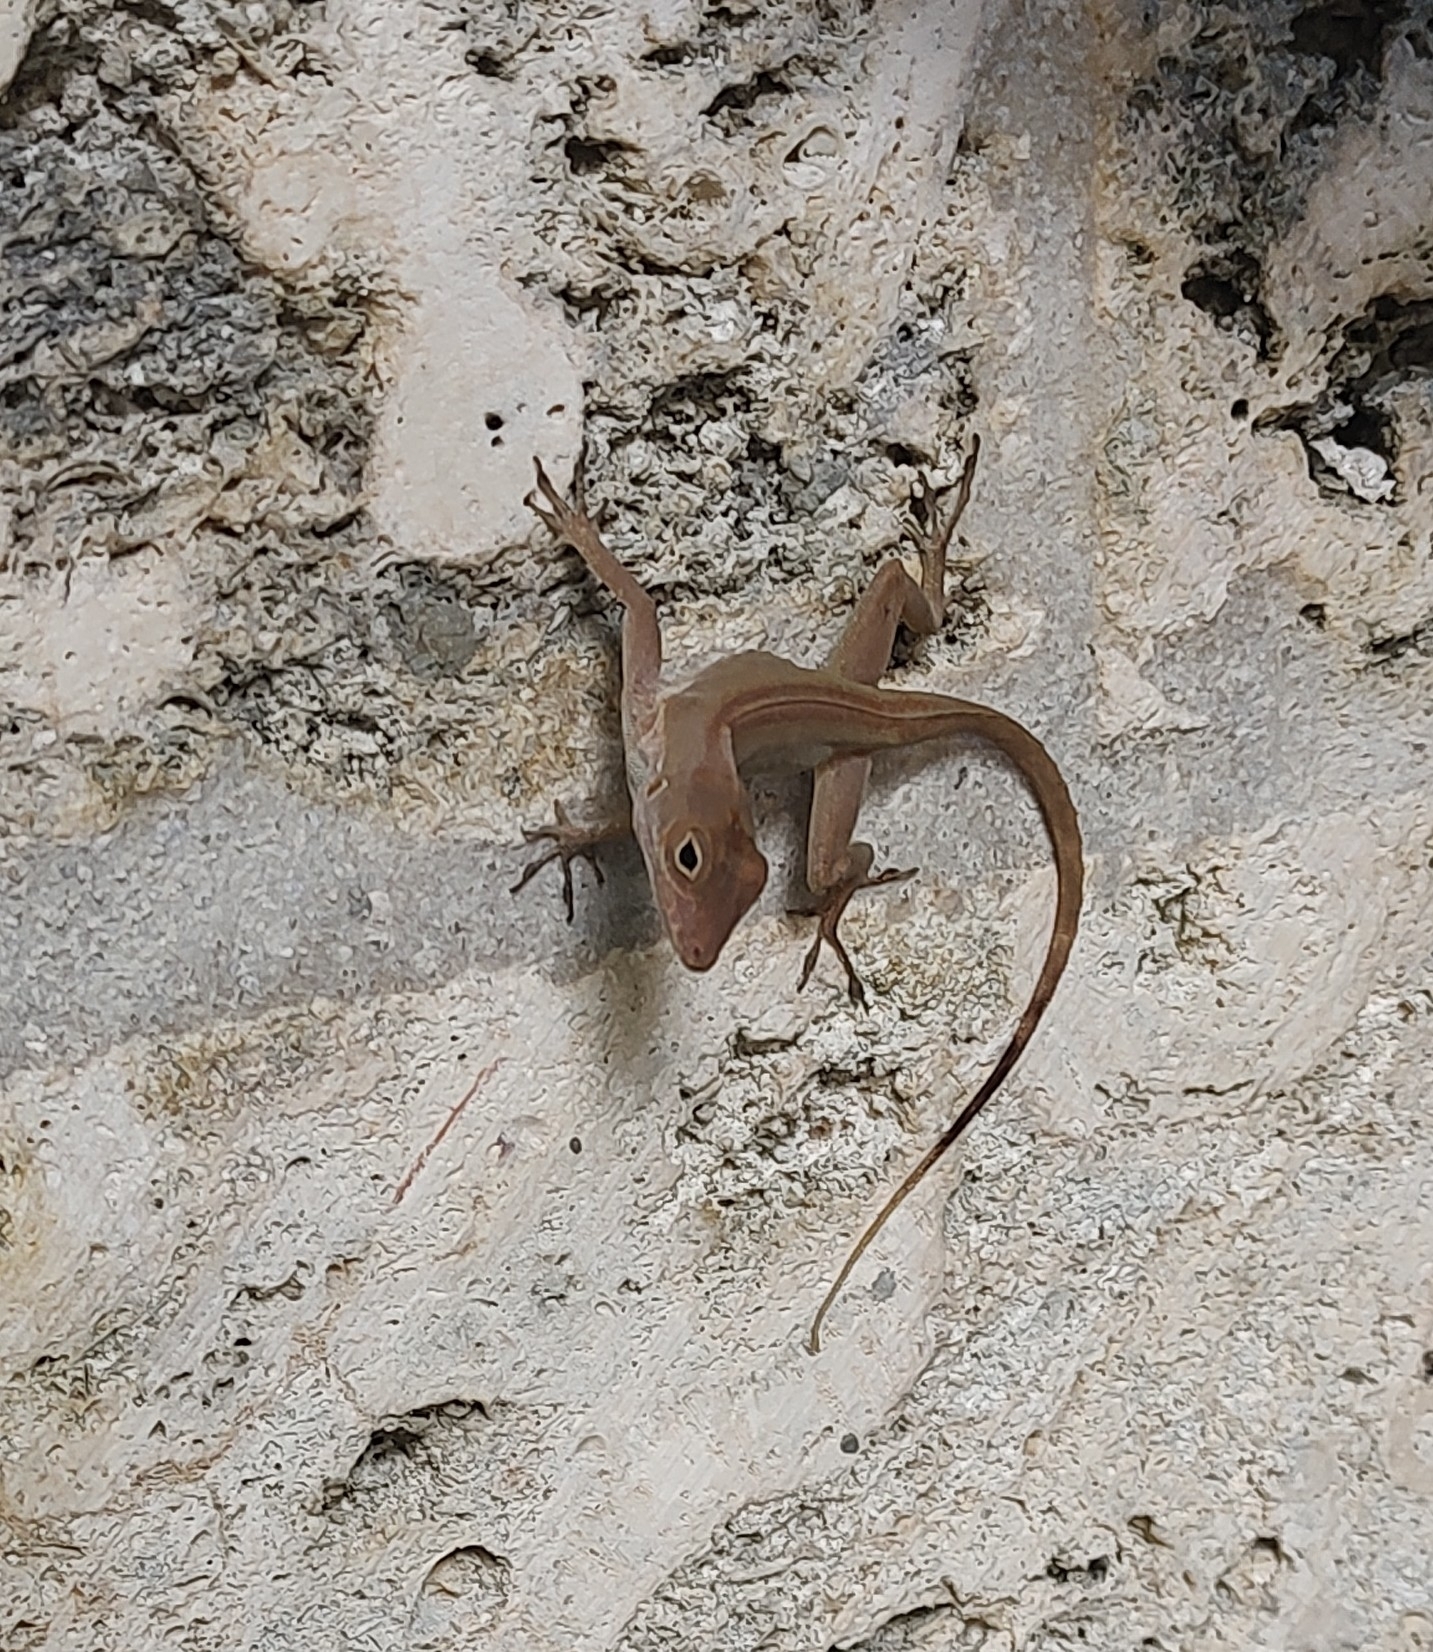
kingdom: Animalia
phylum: Chordata
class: Squamata
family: Dactyloidae
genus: Anolis
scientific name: Anolis cristatellus
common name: Crested anole
